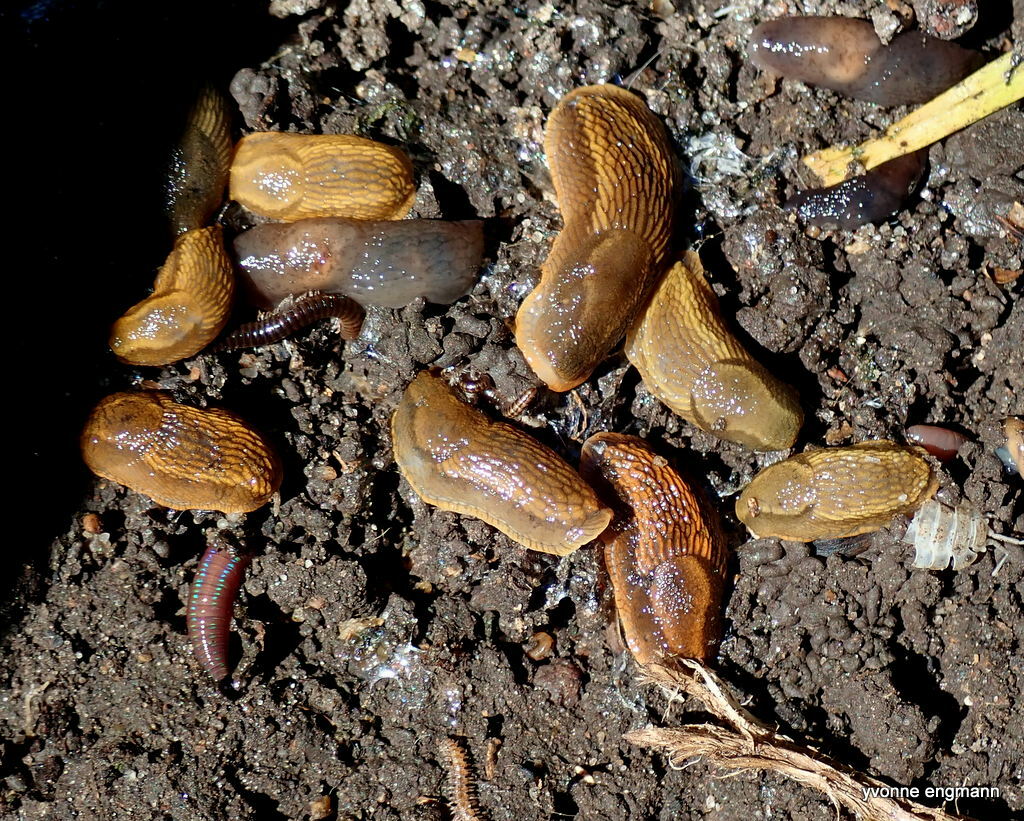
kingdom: Animalia
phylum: Mollusca
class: Gastropoda
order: Stylommatophora
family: Arionidae
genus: Arion
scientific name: Arion vulgaris
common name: Lusitanian slug
